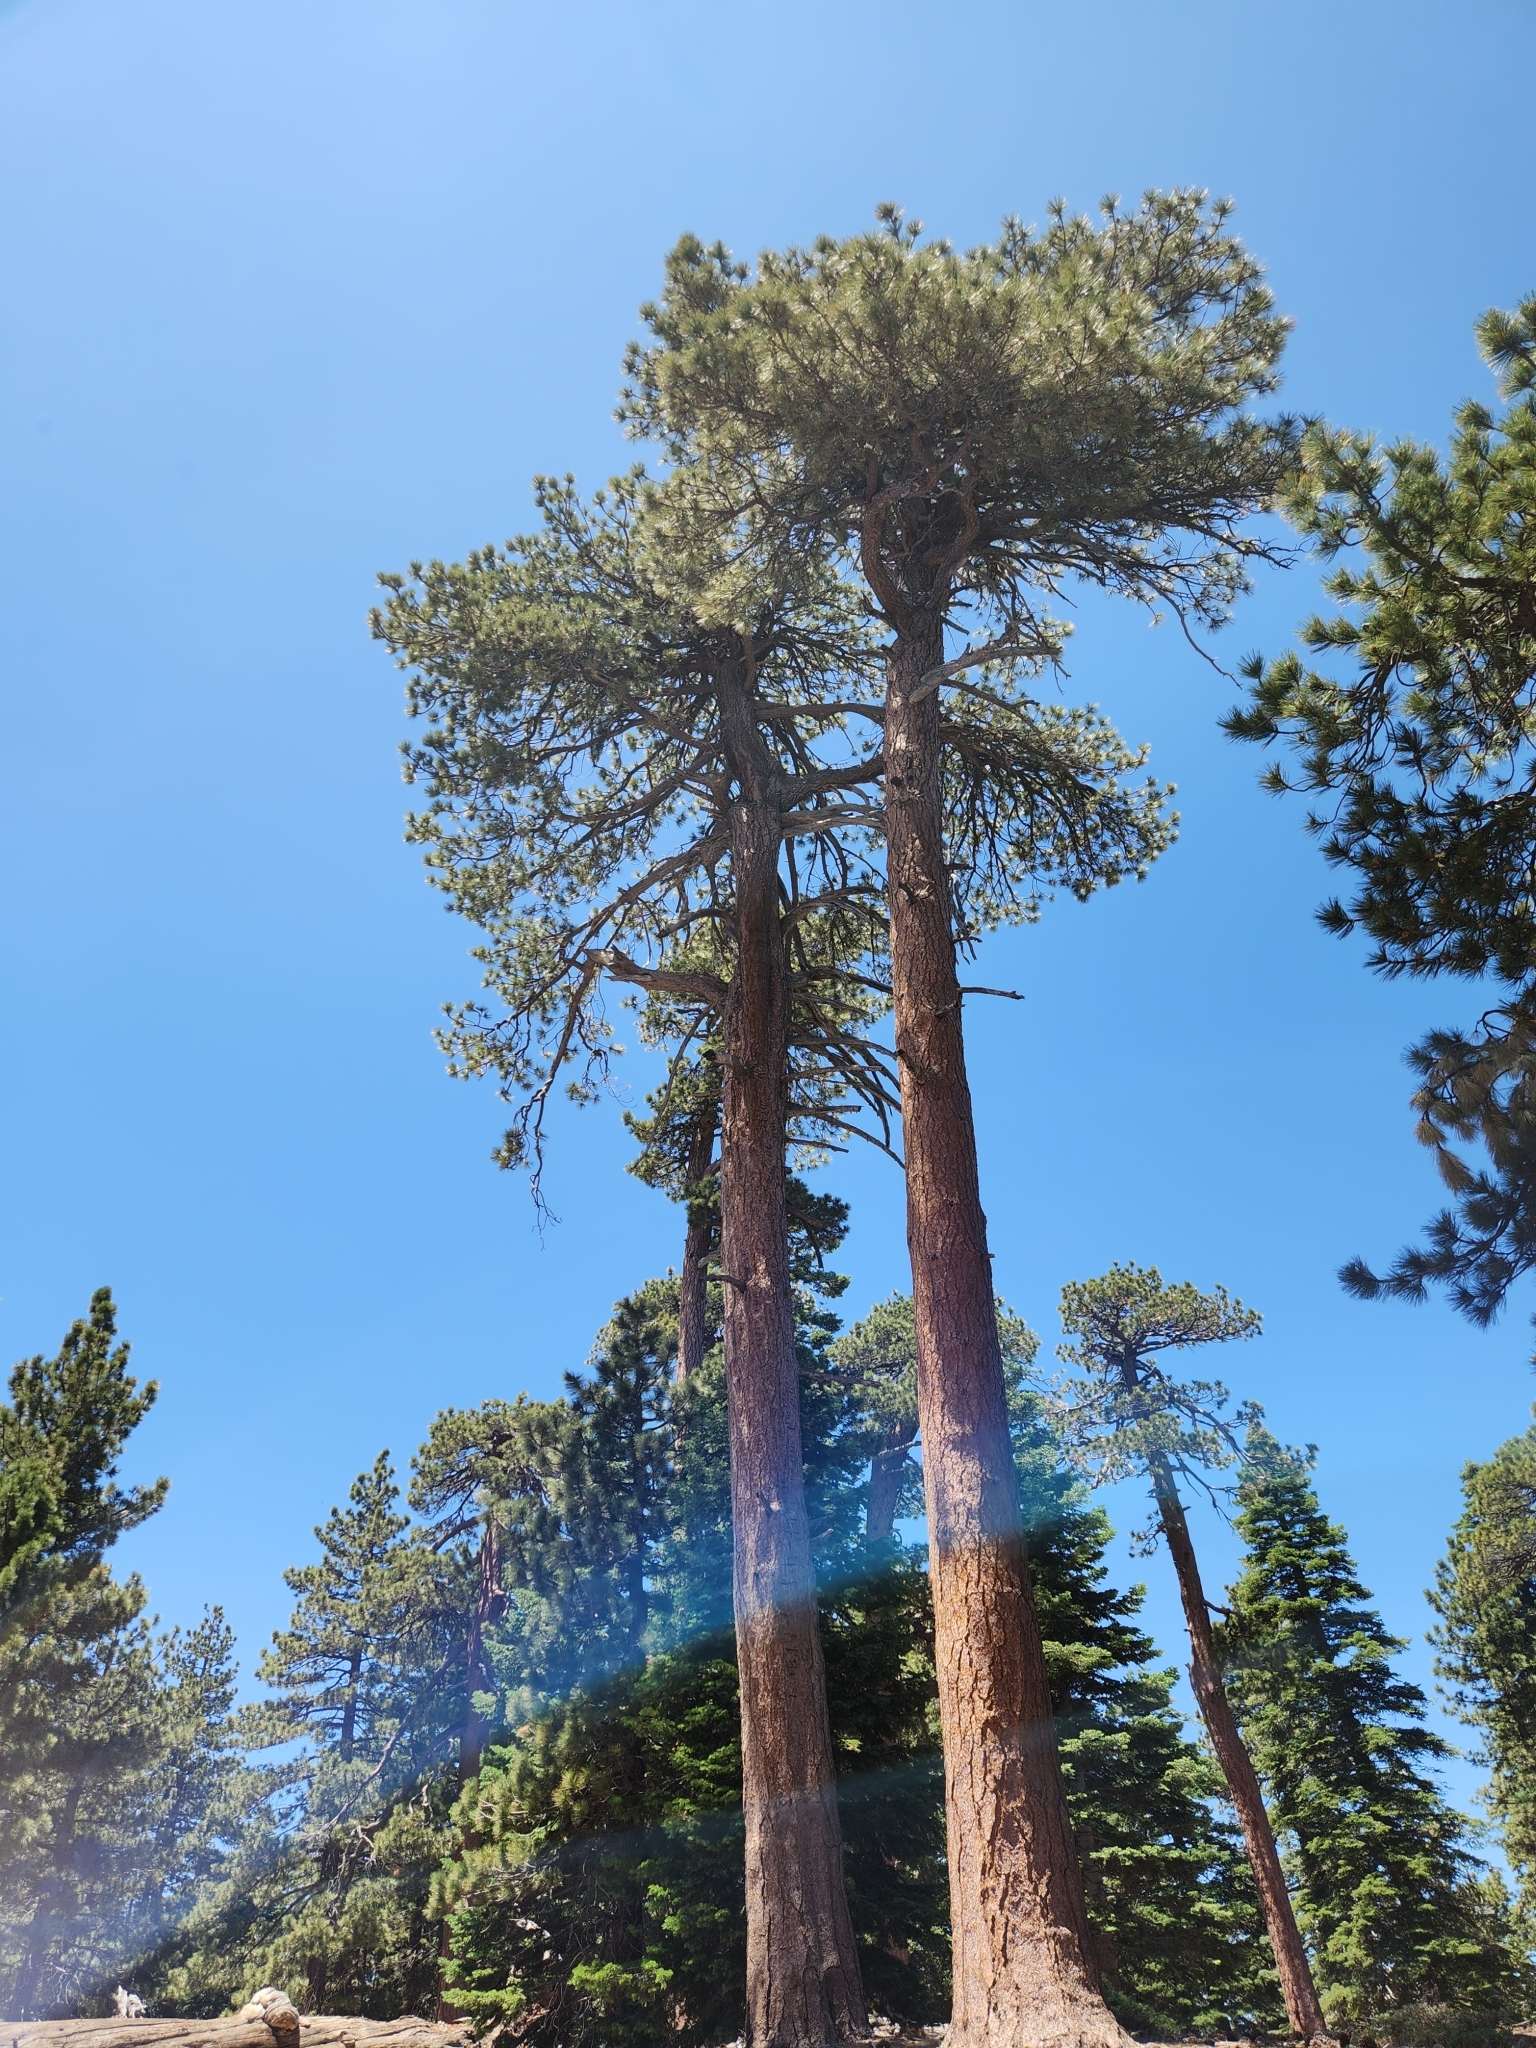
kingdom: Plantae
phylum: Tracheophyta
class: Pinopsida
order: Pinales
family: Pinaceae
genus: Pinus
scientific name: Pinus jeffreyi
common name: Jeffrey pine
